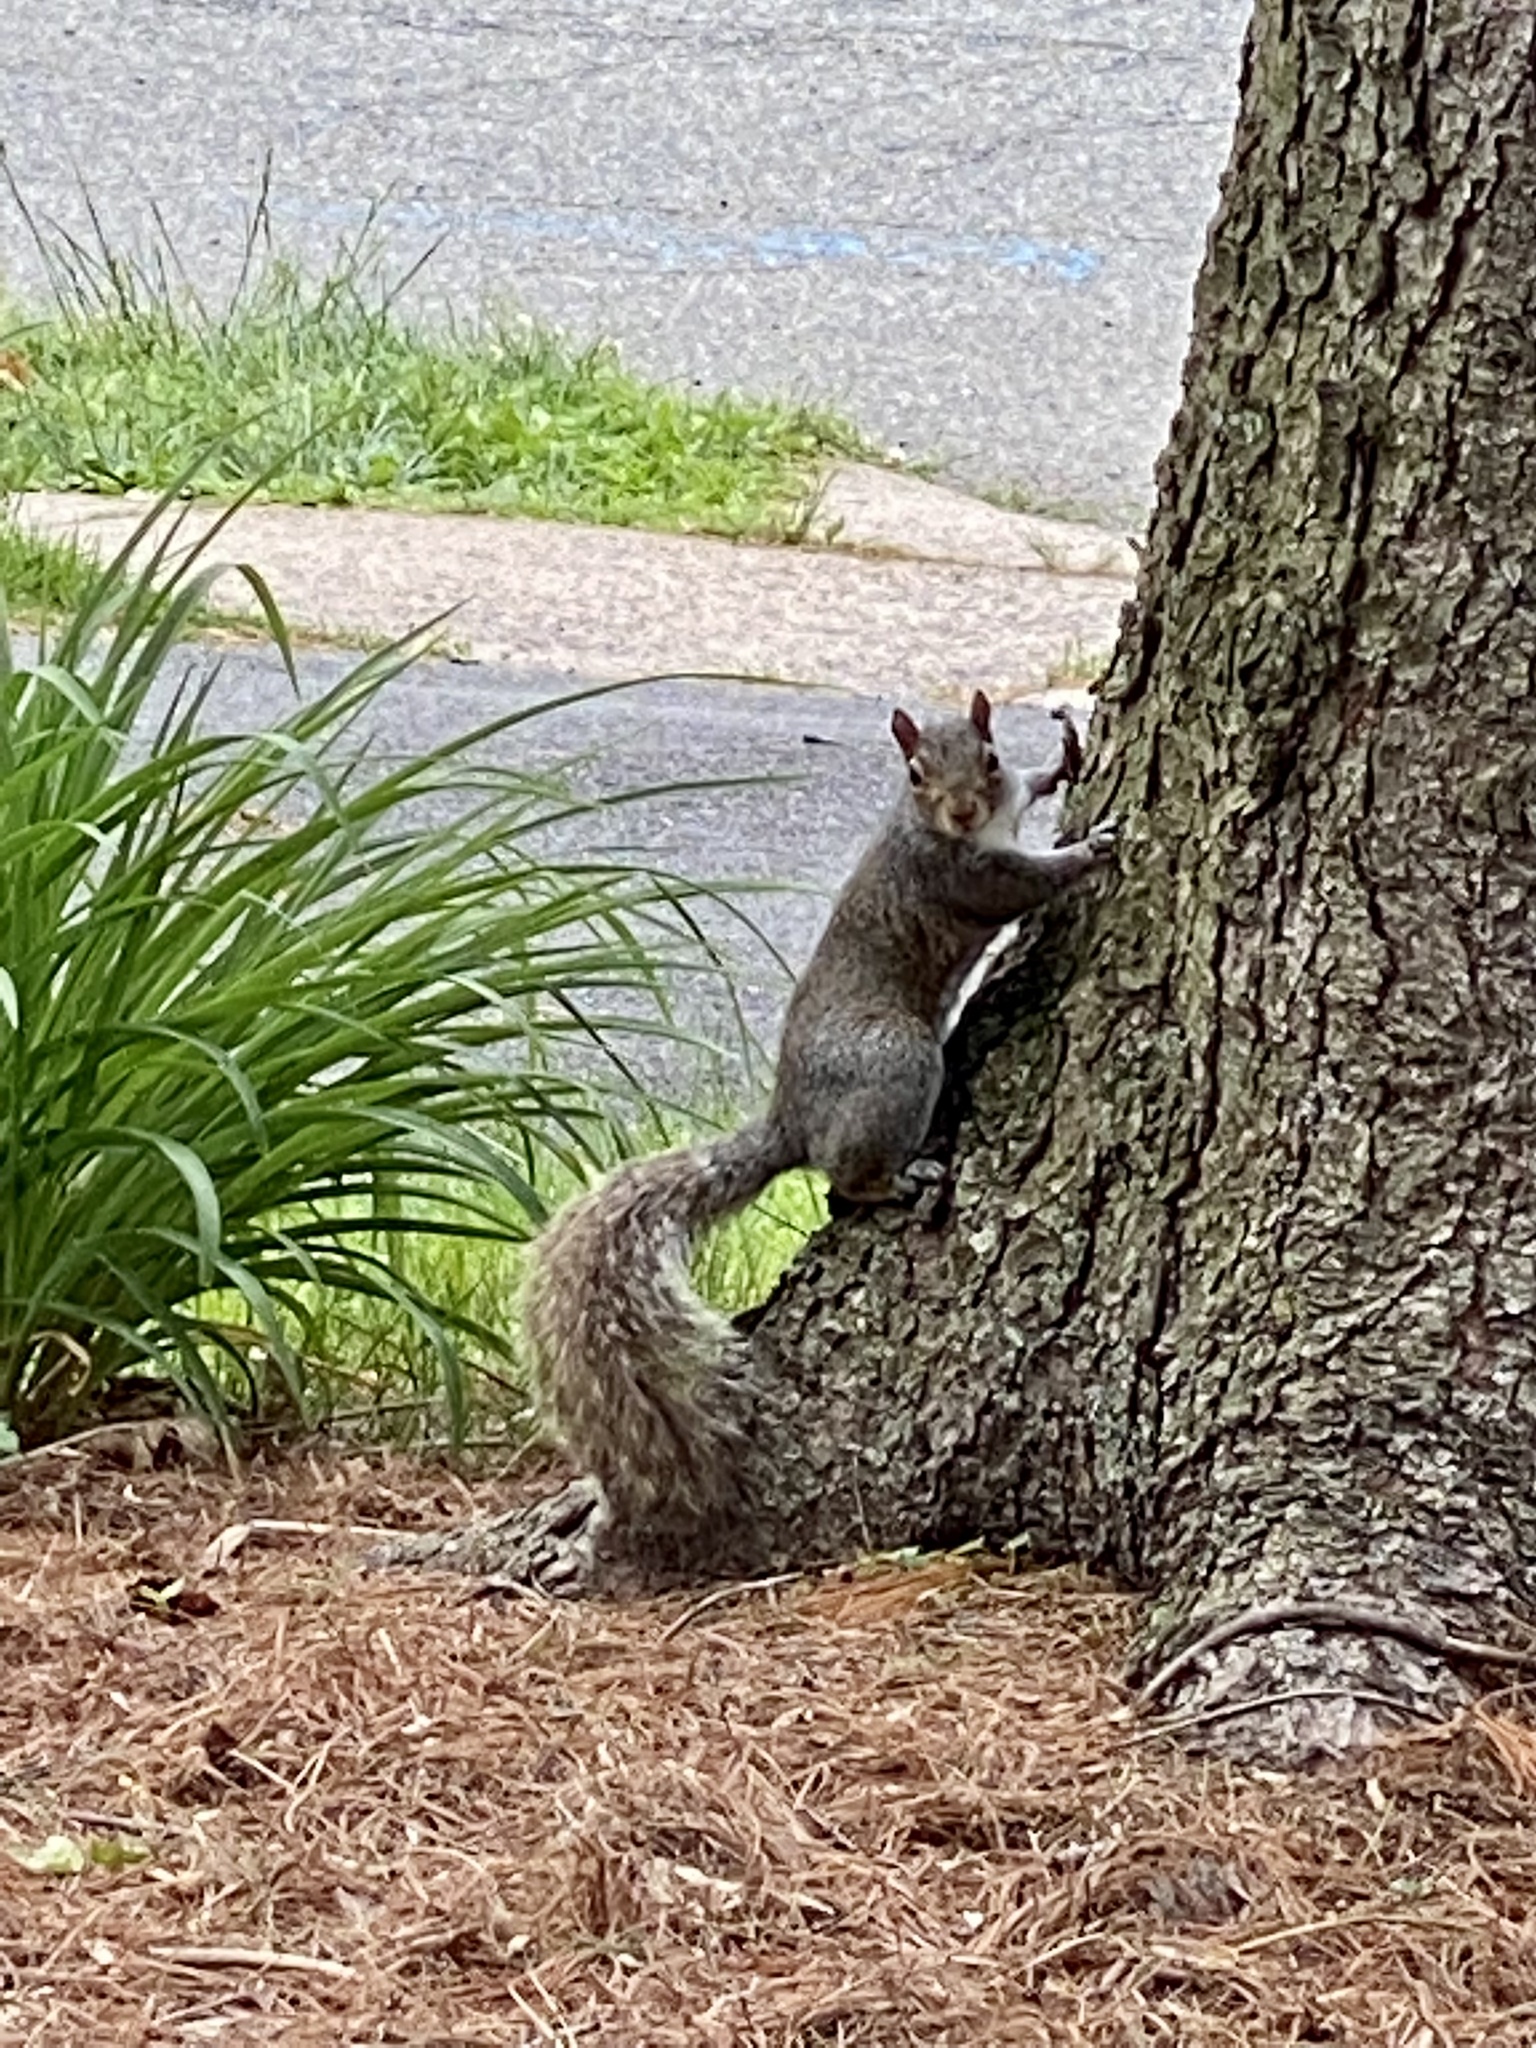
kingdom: Animalia
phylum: Chordata
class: Mammalia
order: Rodentia
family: Sciuridae
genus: Sciurus
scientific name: Sciurus carolinensis
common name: Eastern gray squirrel
